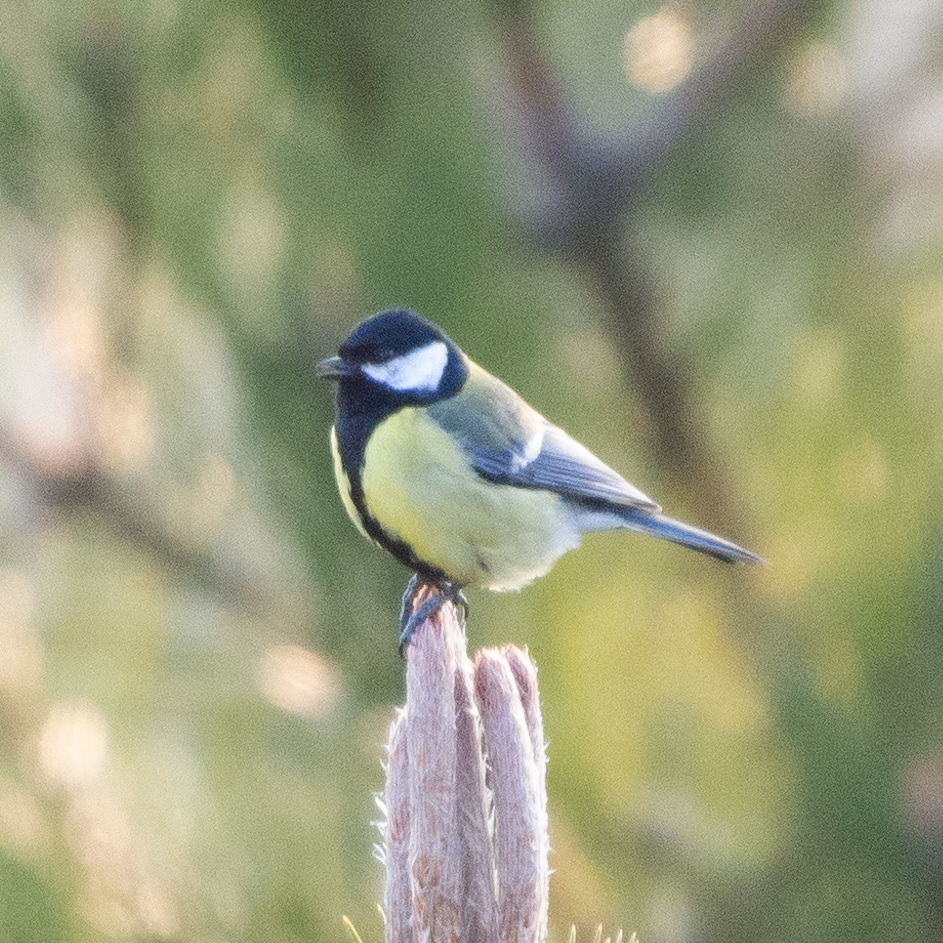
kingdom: Animalia
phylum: Chordata
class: Aves
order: Passeriformes
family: Paridae
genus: Parus
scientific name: Parus major
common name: Great tit
